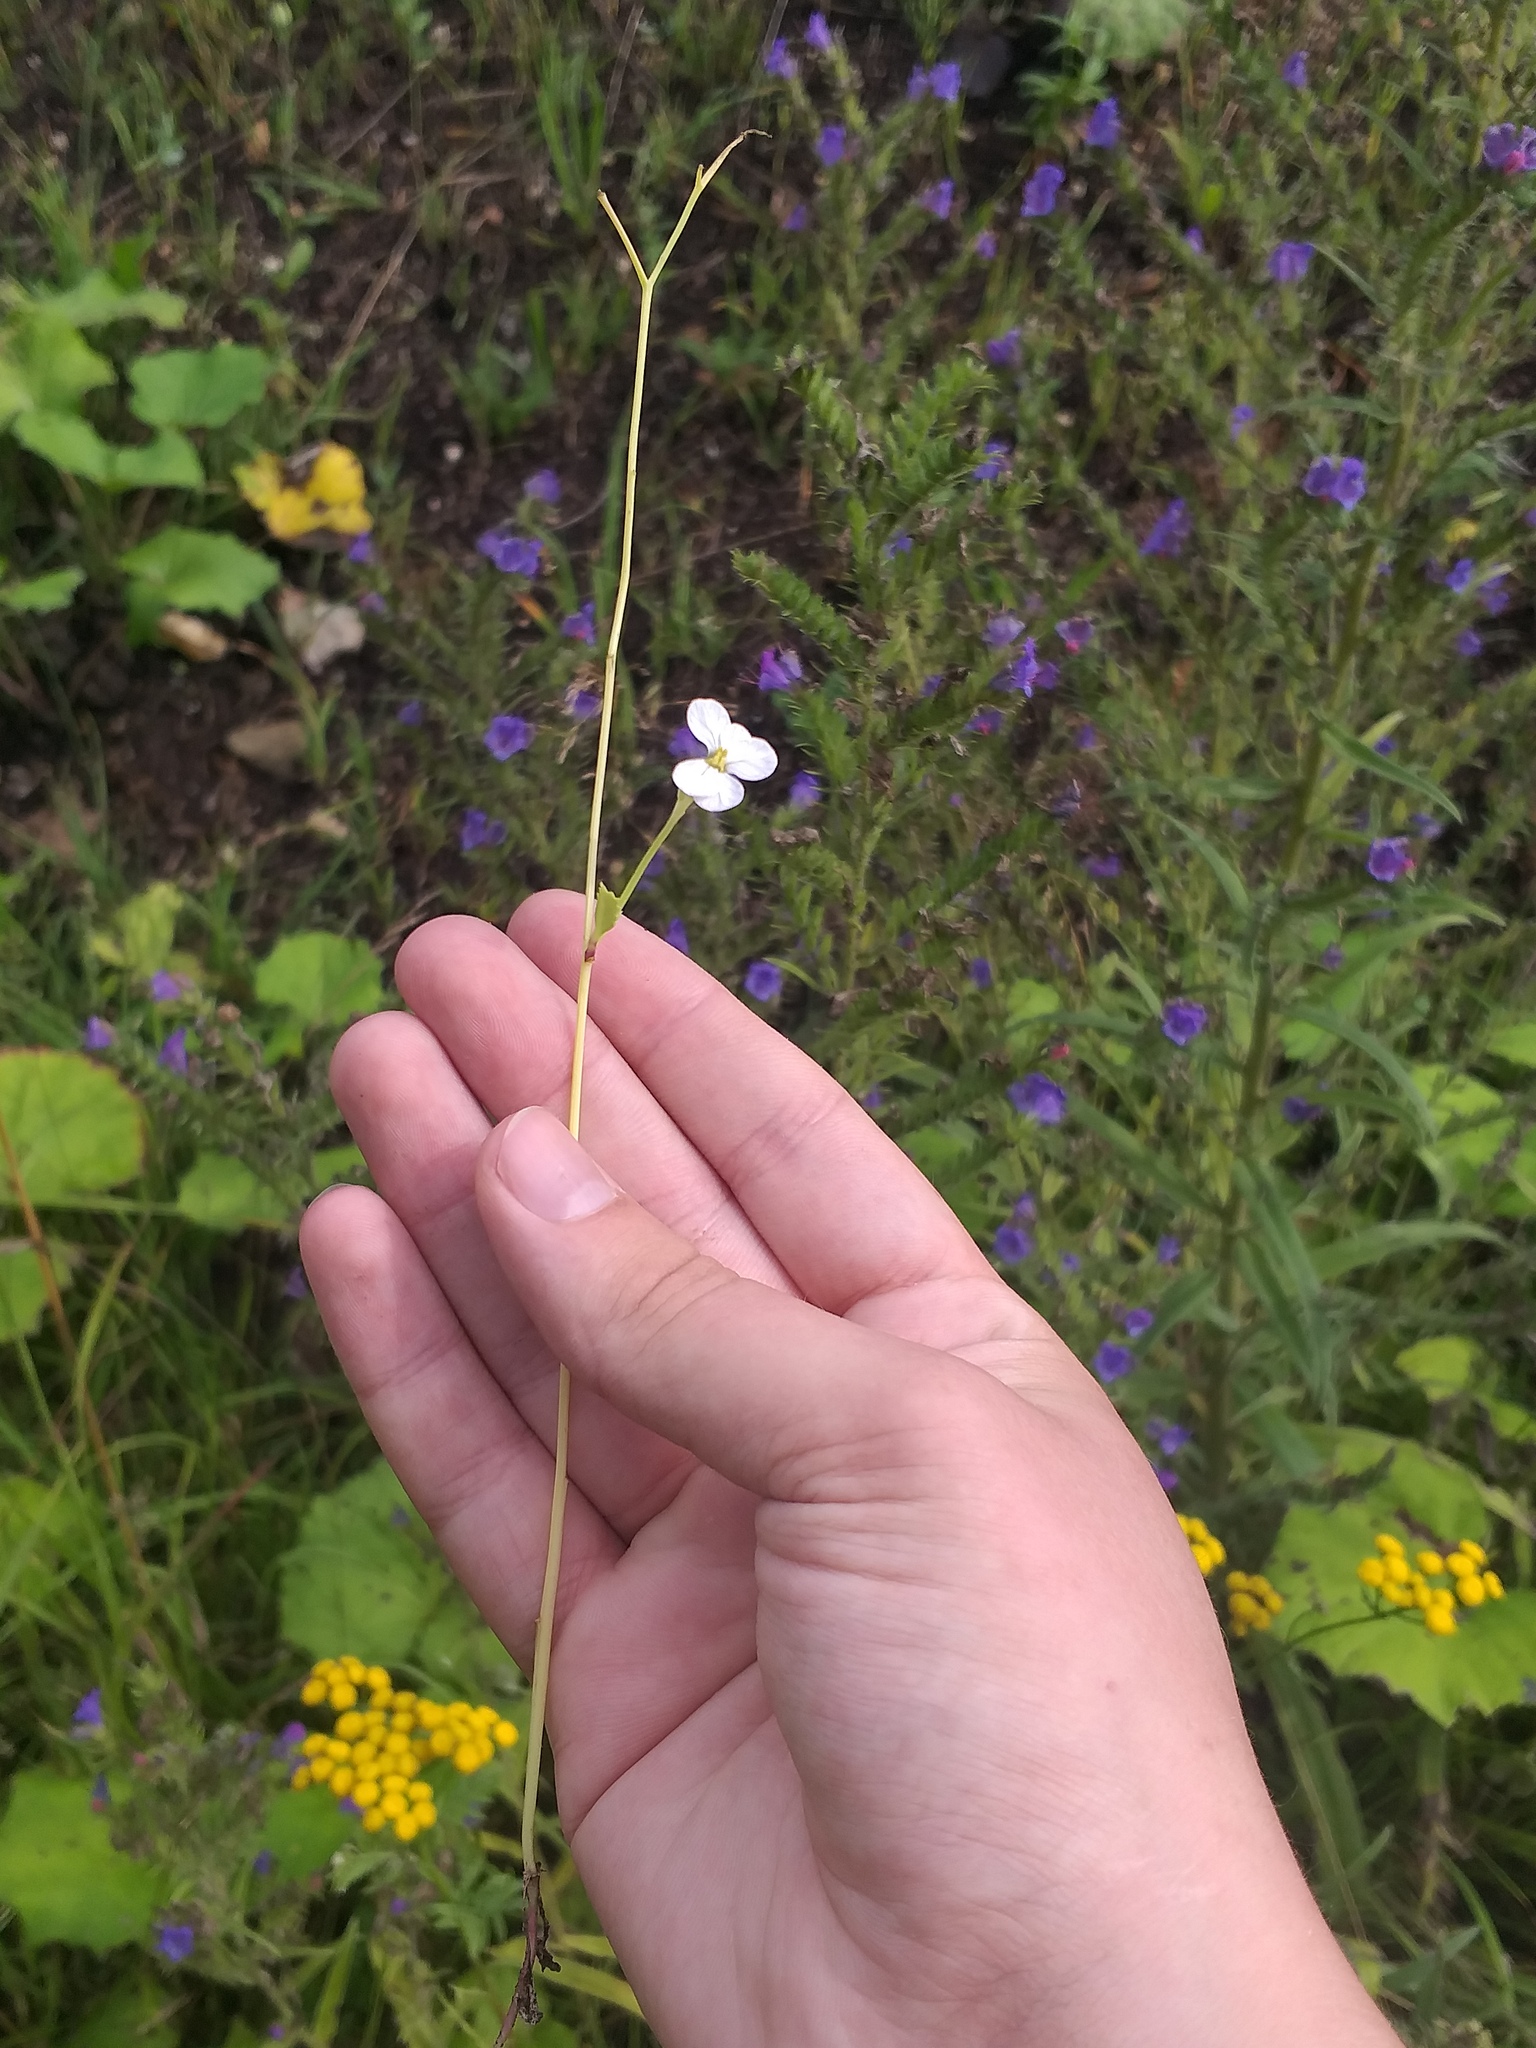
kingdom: Plantae
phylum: Tracheophyta
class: Magnoliopsida
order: Brassicales
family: Brassicaceae
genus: Raphanus
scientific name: Raphanus raphanistrum
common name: Wild radish
